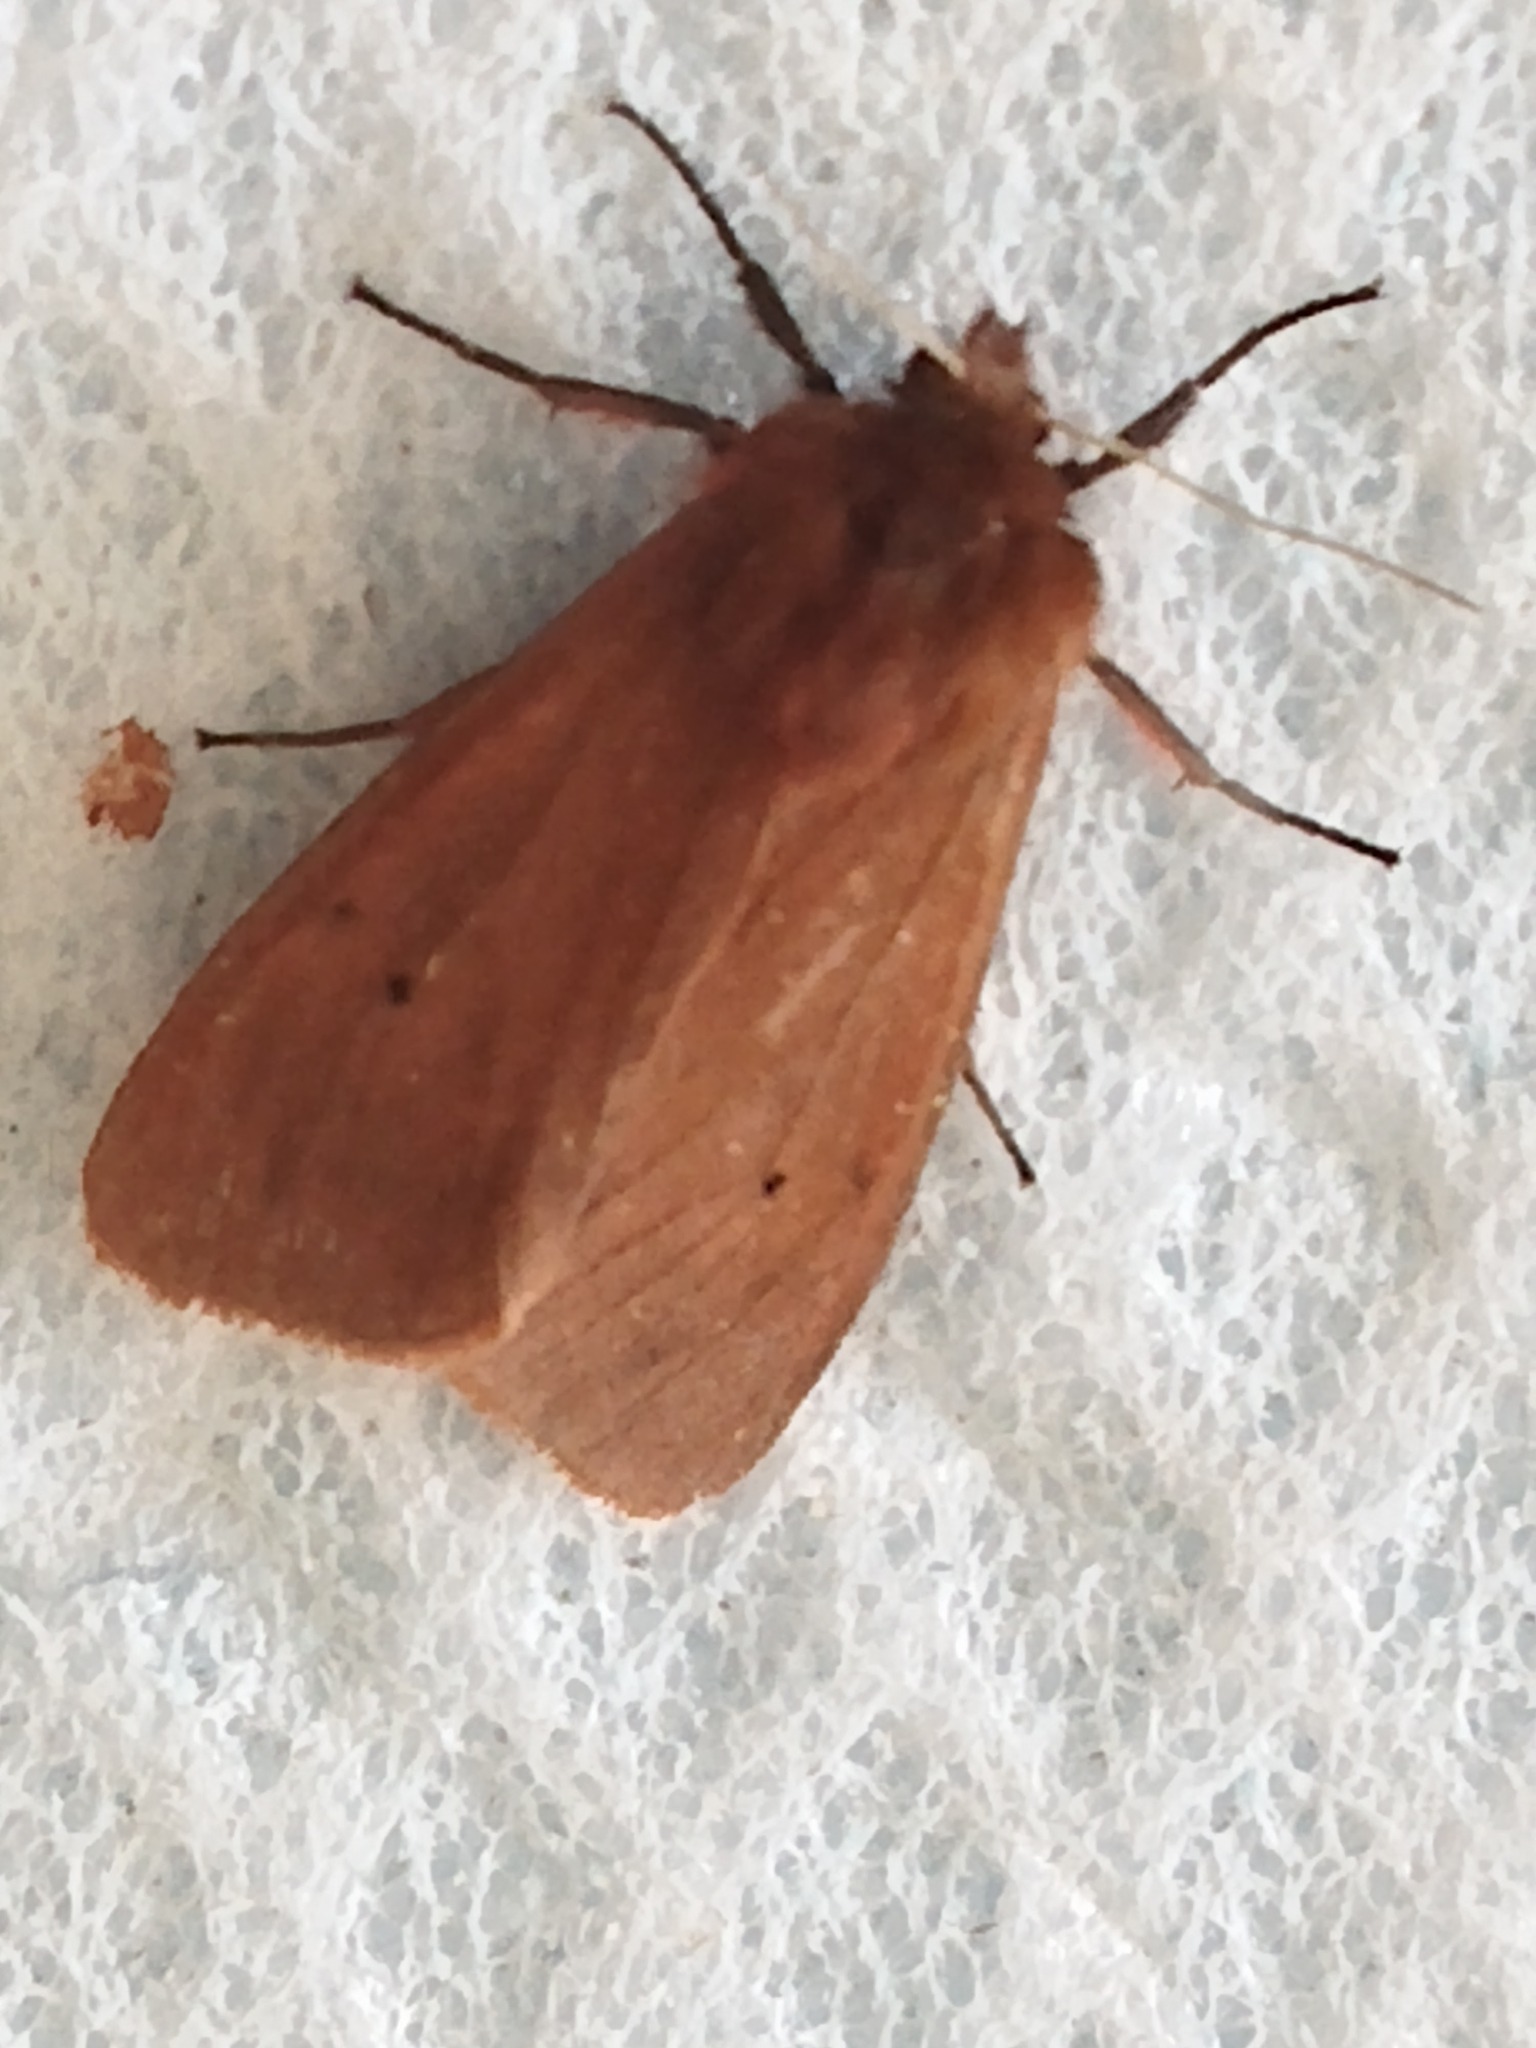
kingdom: Animalia
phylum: Arthropoda
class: Insecta
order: Lepidoptera
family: Erebidae
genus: Phragmatobia
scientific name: Phragmatobia fuliginosa
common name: Ruby tiger
